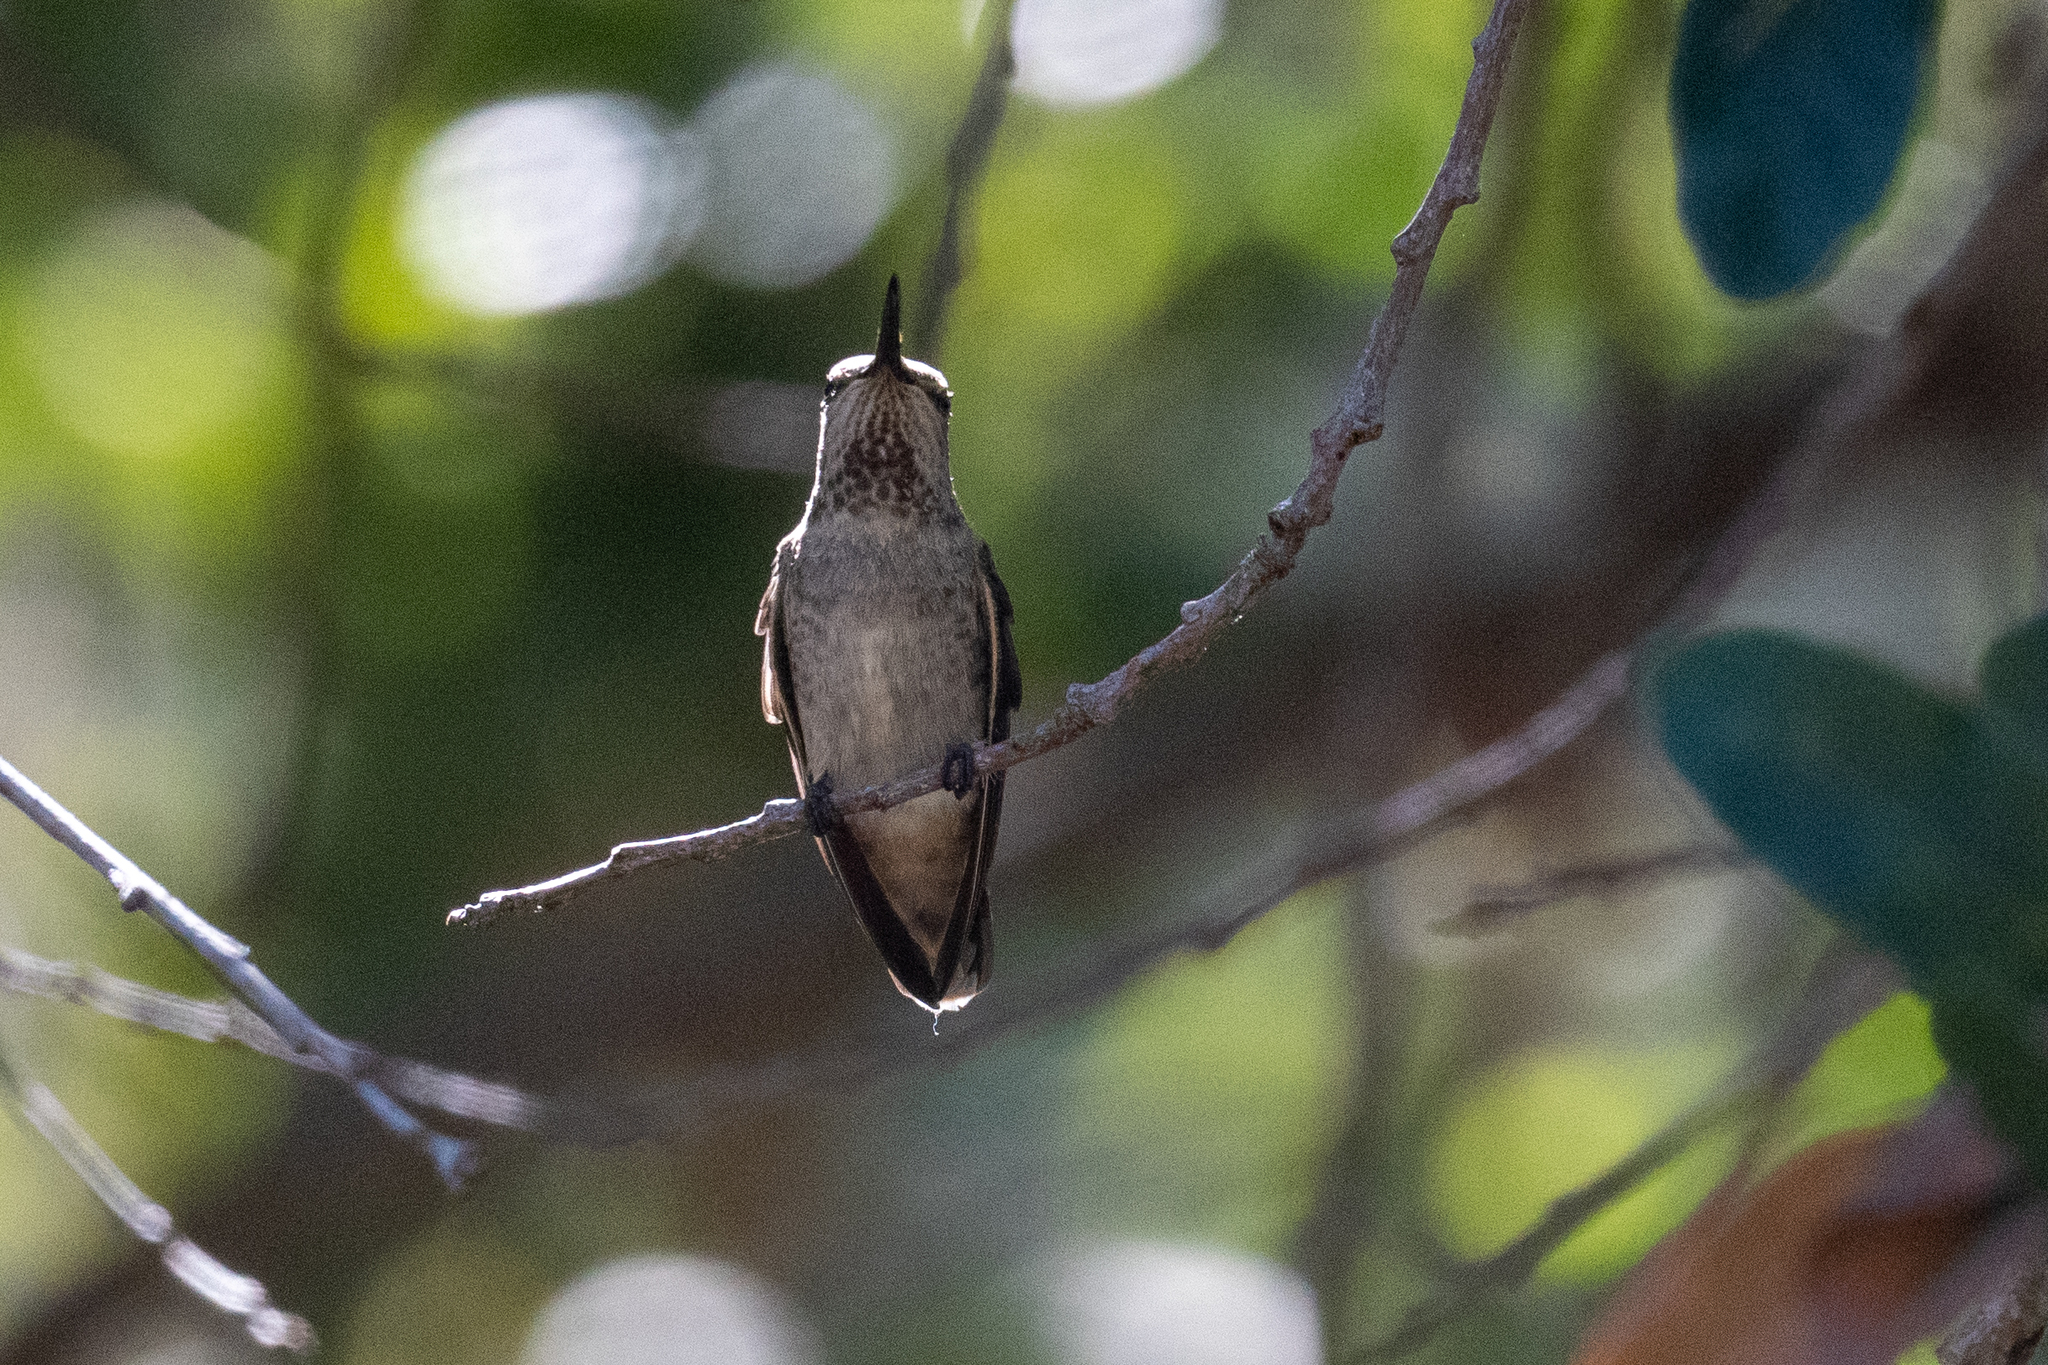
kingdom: Animalia
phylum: Chordata
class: Aves
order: Apodiformes
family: Trochilidae
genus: Calypte
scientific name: Calypte anna
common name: Anna's hummingbird
